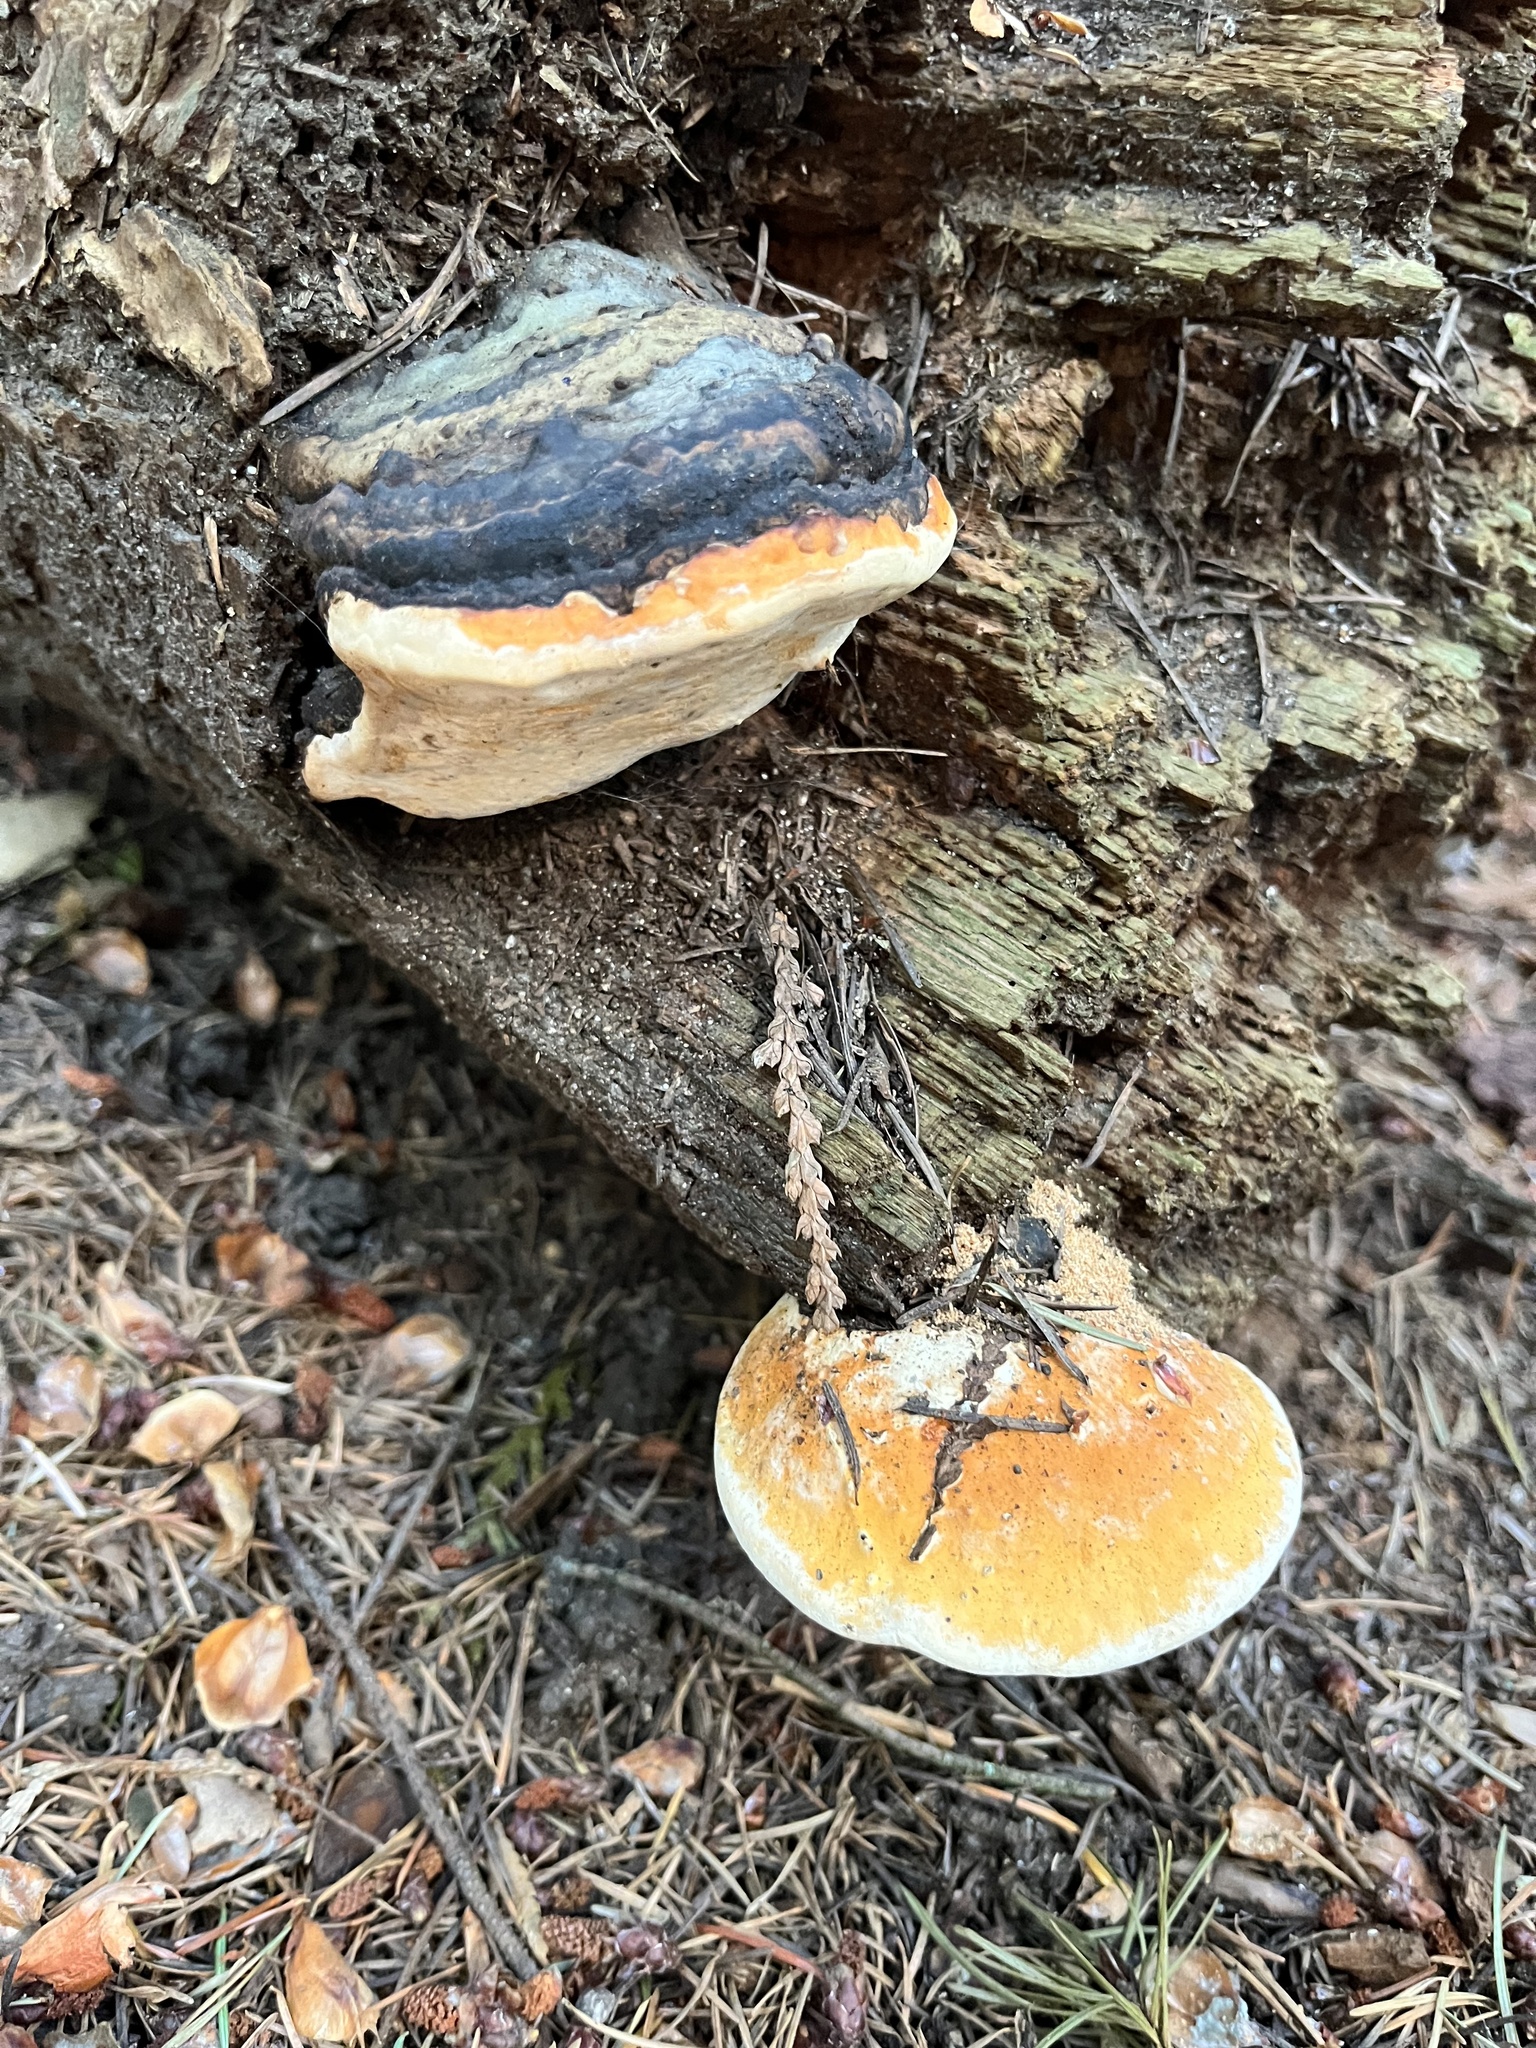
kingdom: Fungi
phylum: Basidiomycota
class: Agaricomycetes
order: Polyporales
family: Fomitopsidaceae
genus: Fomitopsis
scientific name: Fomitopsis mounceae
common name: Northern red belt
